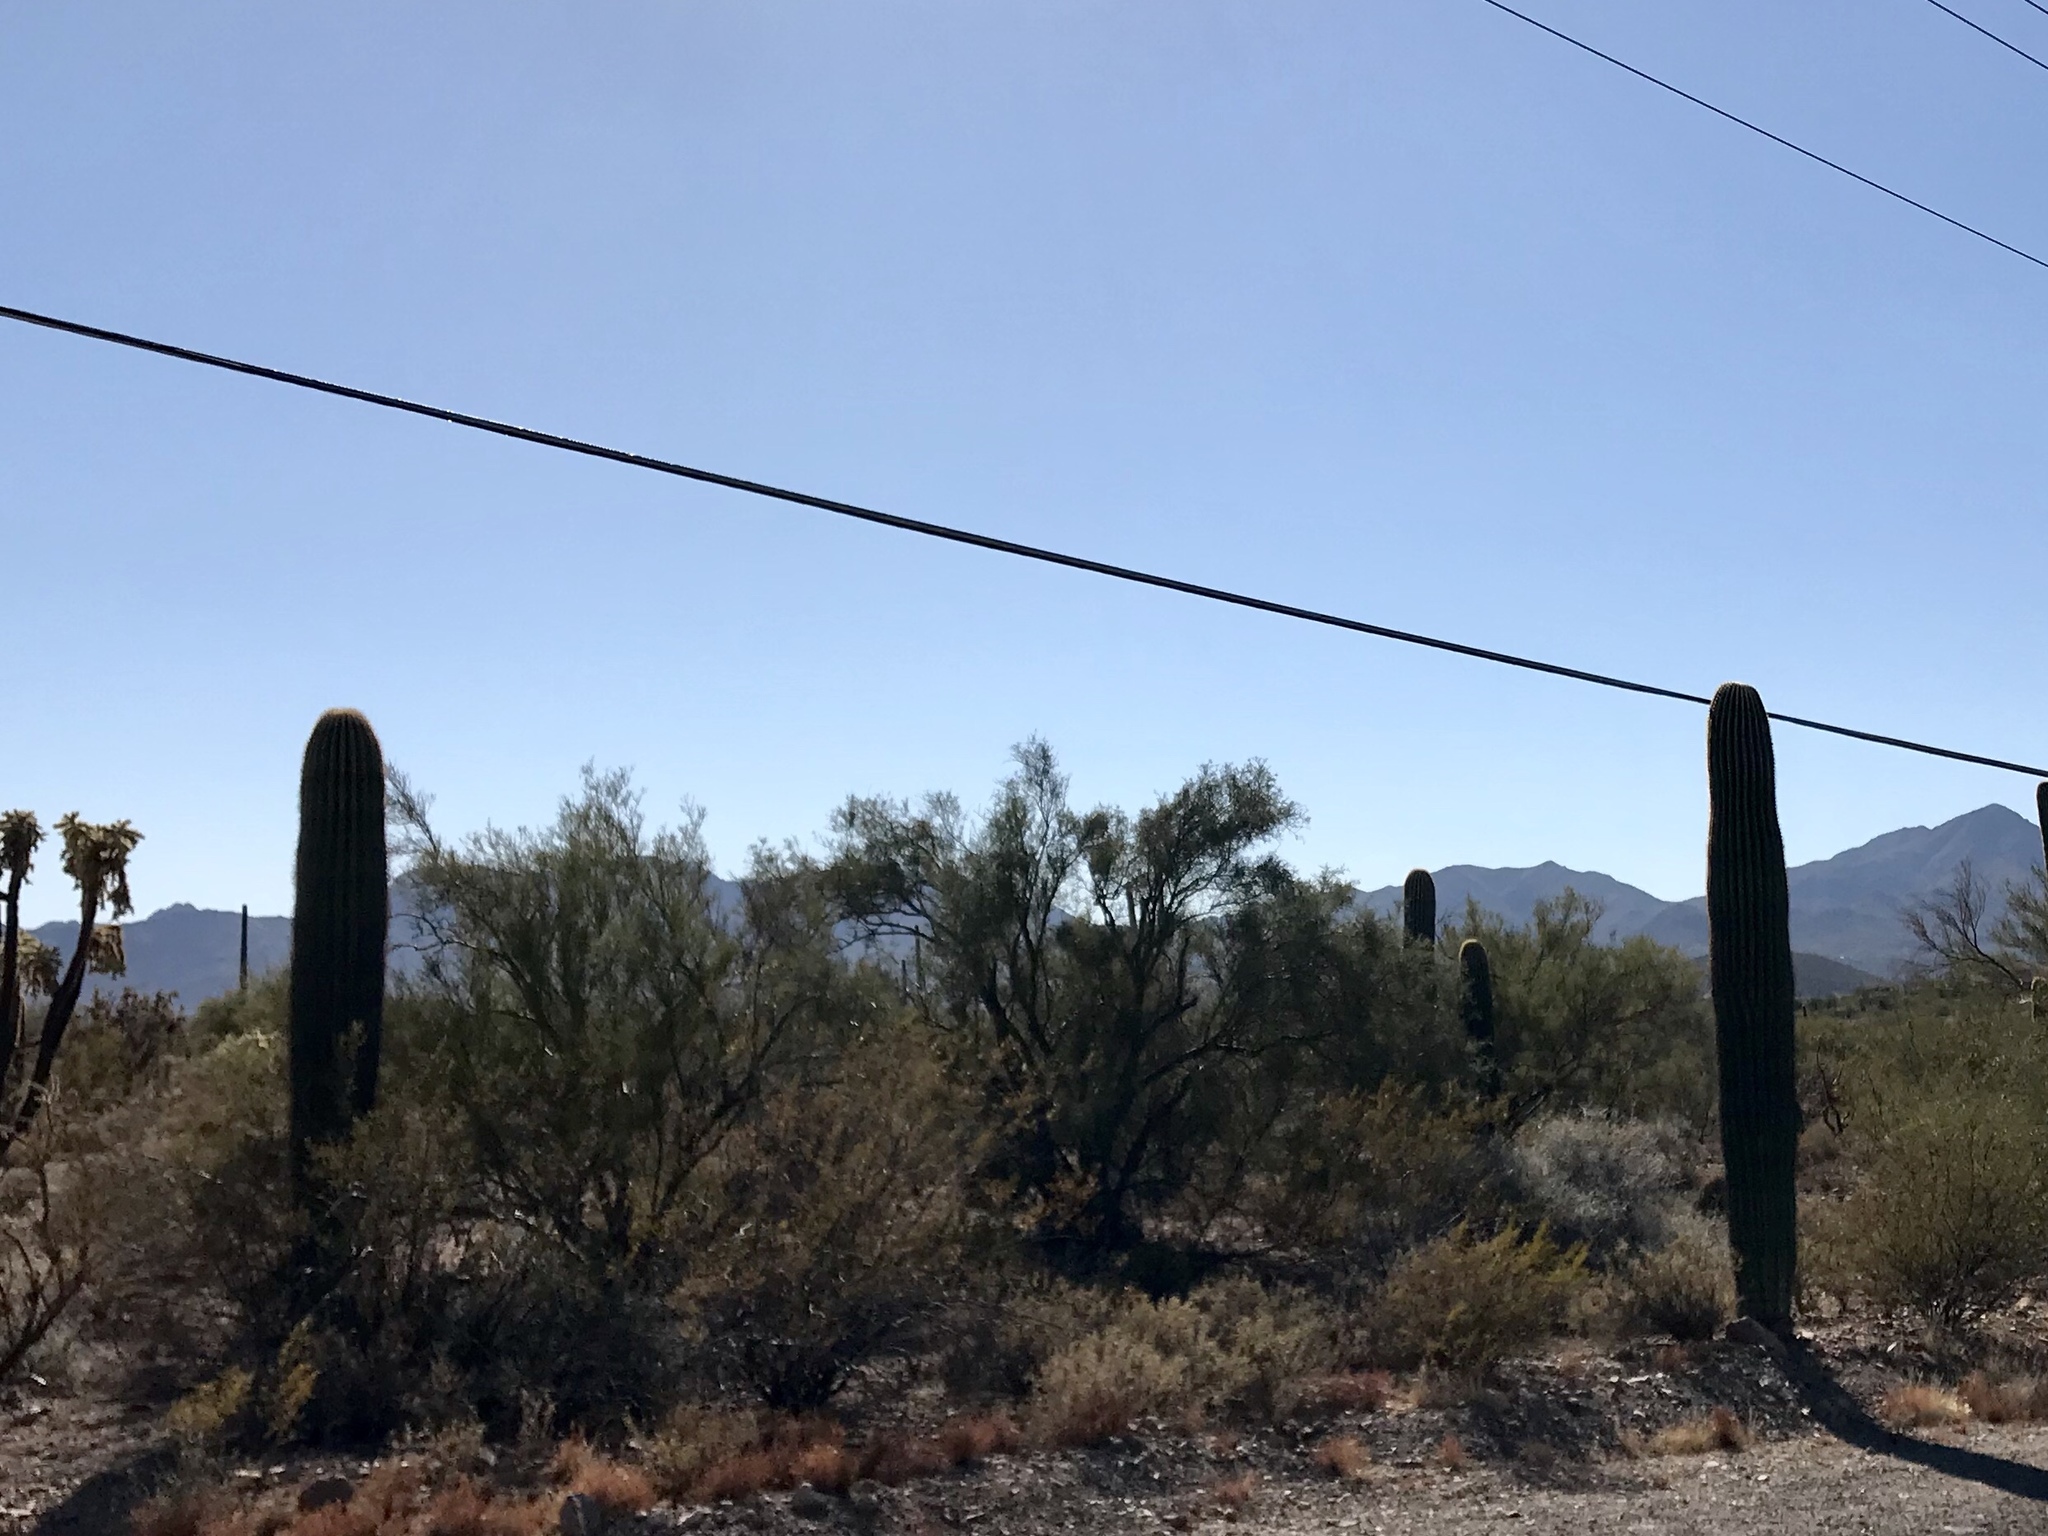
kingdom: Plantae
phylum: Tracheophyta
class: Magnoliopsida
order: Caryophyllales
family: Cactaceae
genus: Carnegiea
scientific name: Carnegiea gigantea
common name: Saguaro
